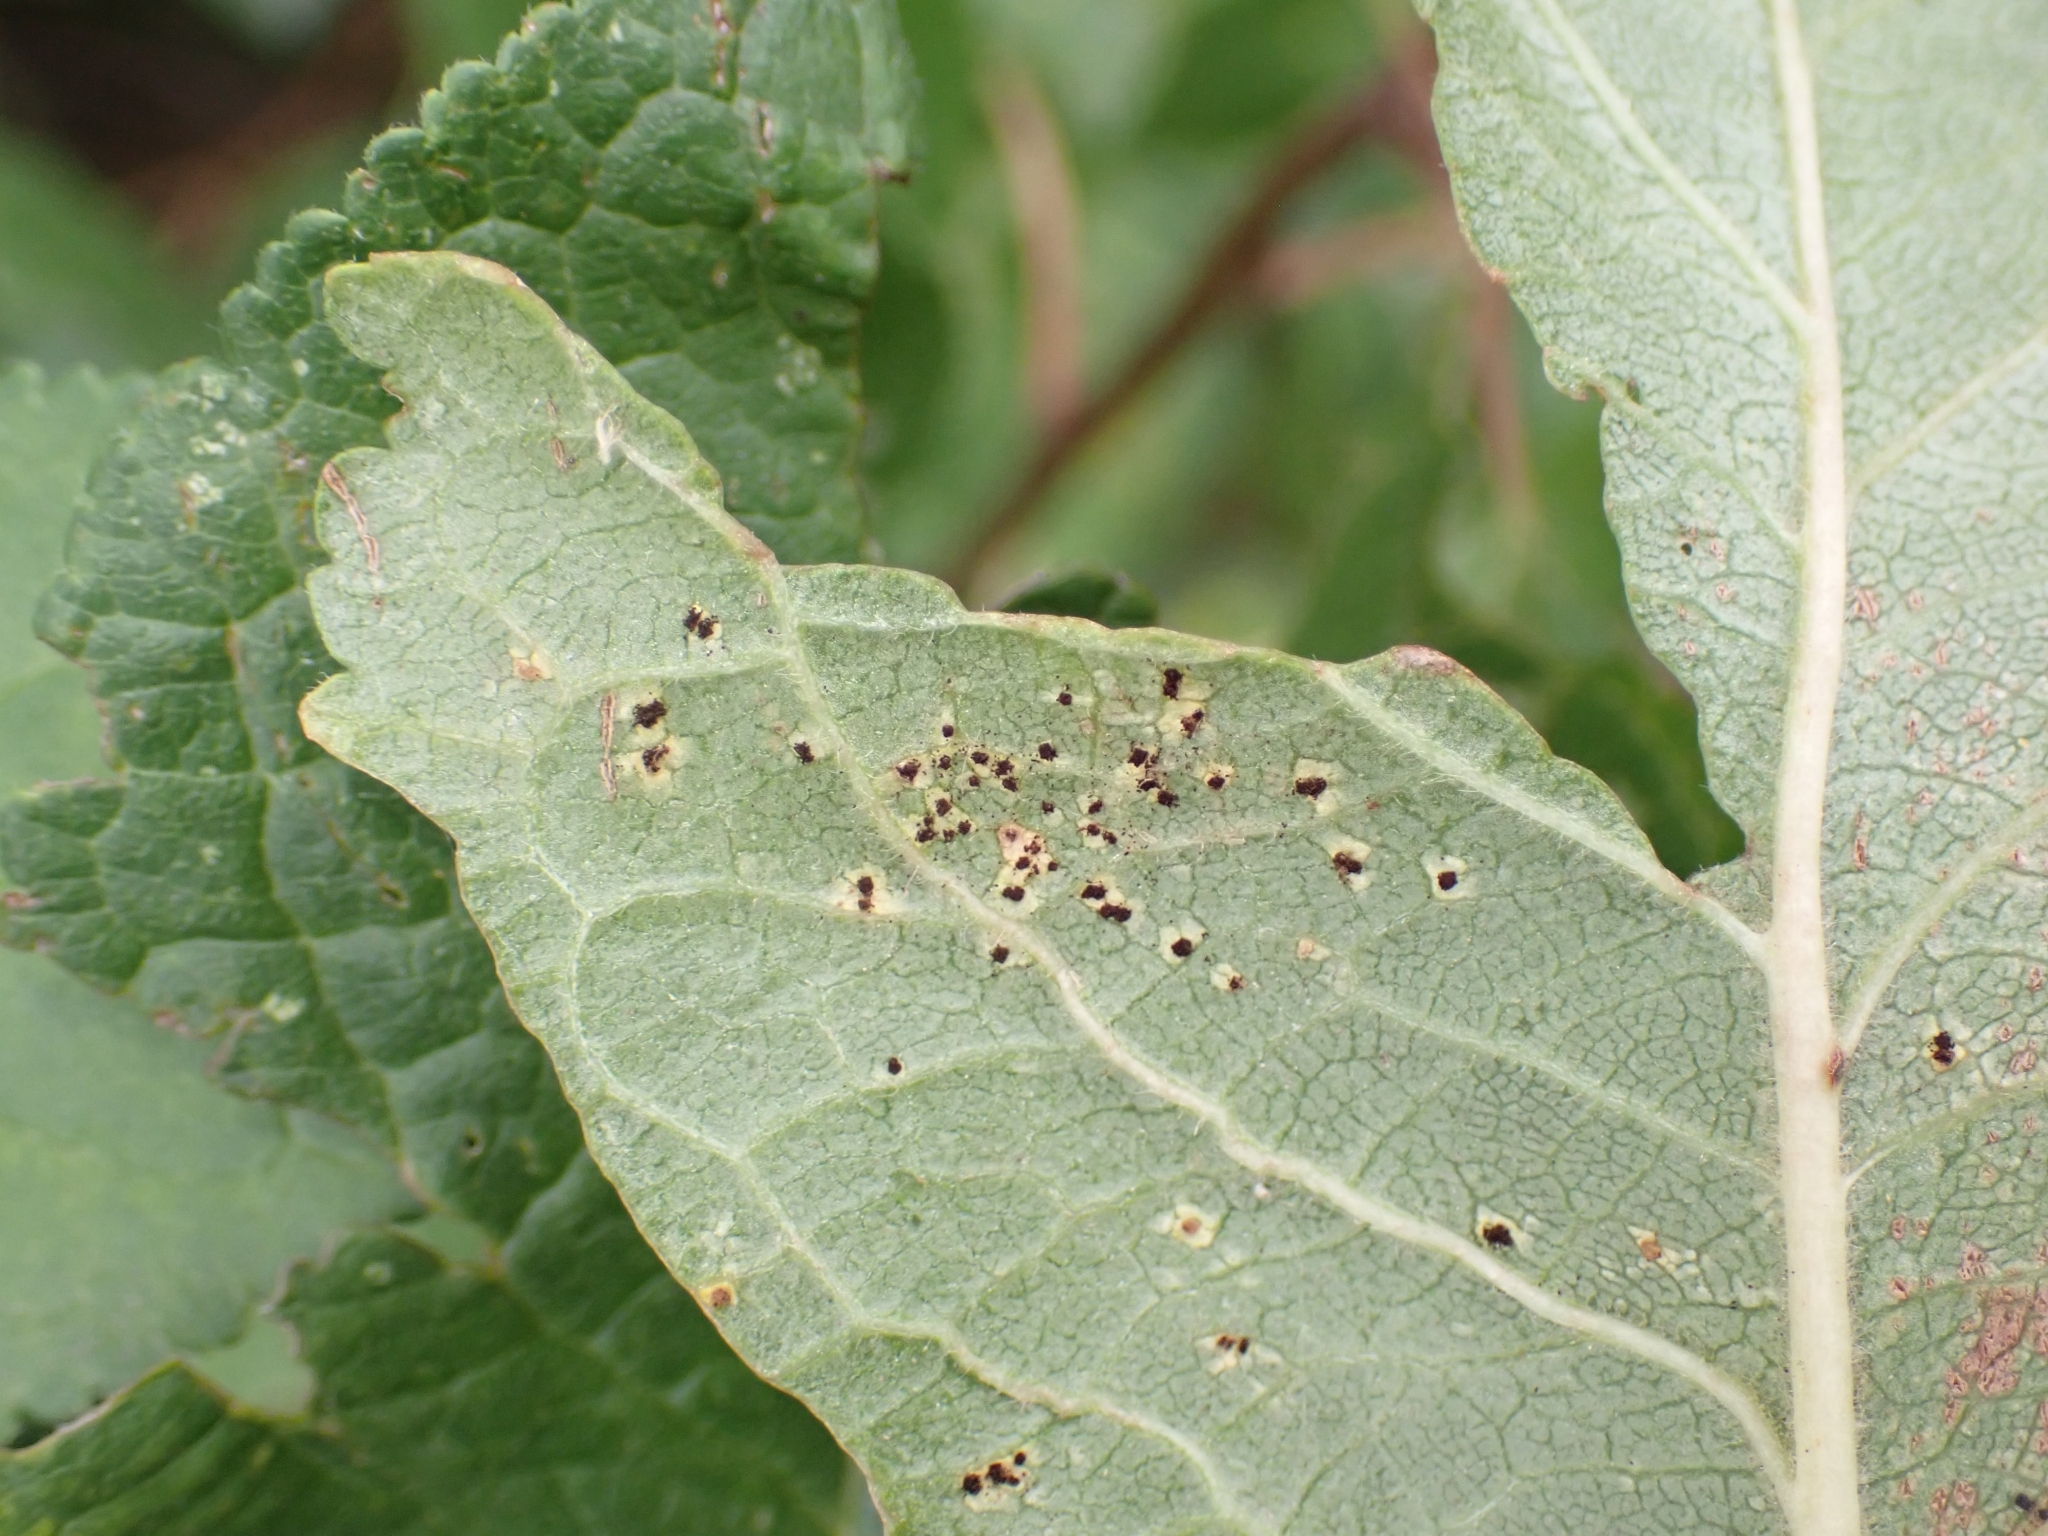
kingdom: Fungi
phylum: Basidiomycota
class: Pucciniomycetes
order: Pucciniales
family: Tranzscheliaceae
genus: Tranzschelia
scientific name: Tranzschelia
